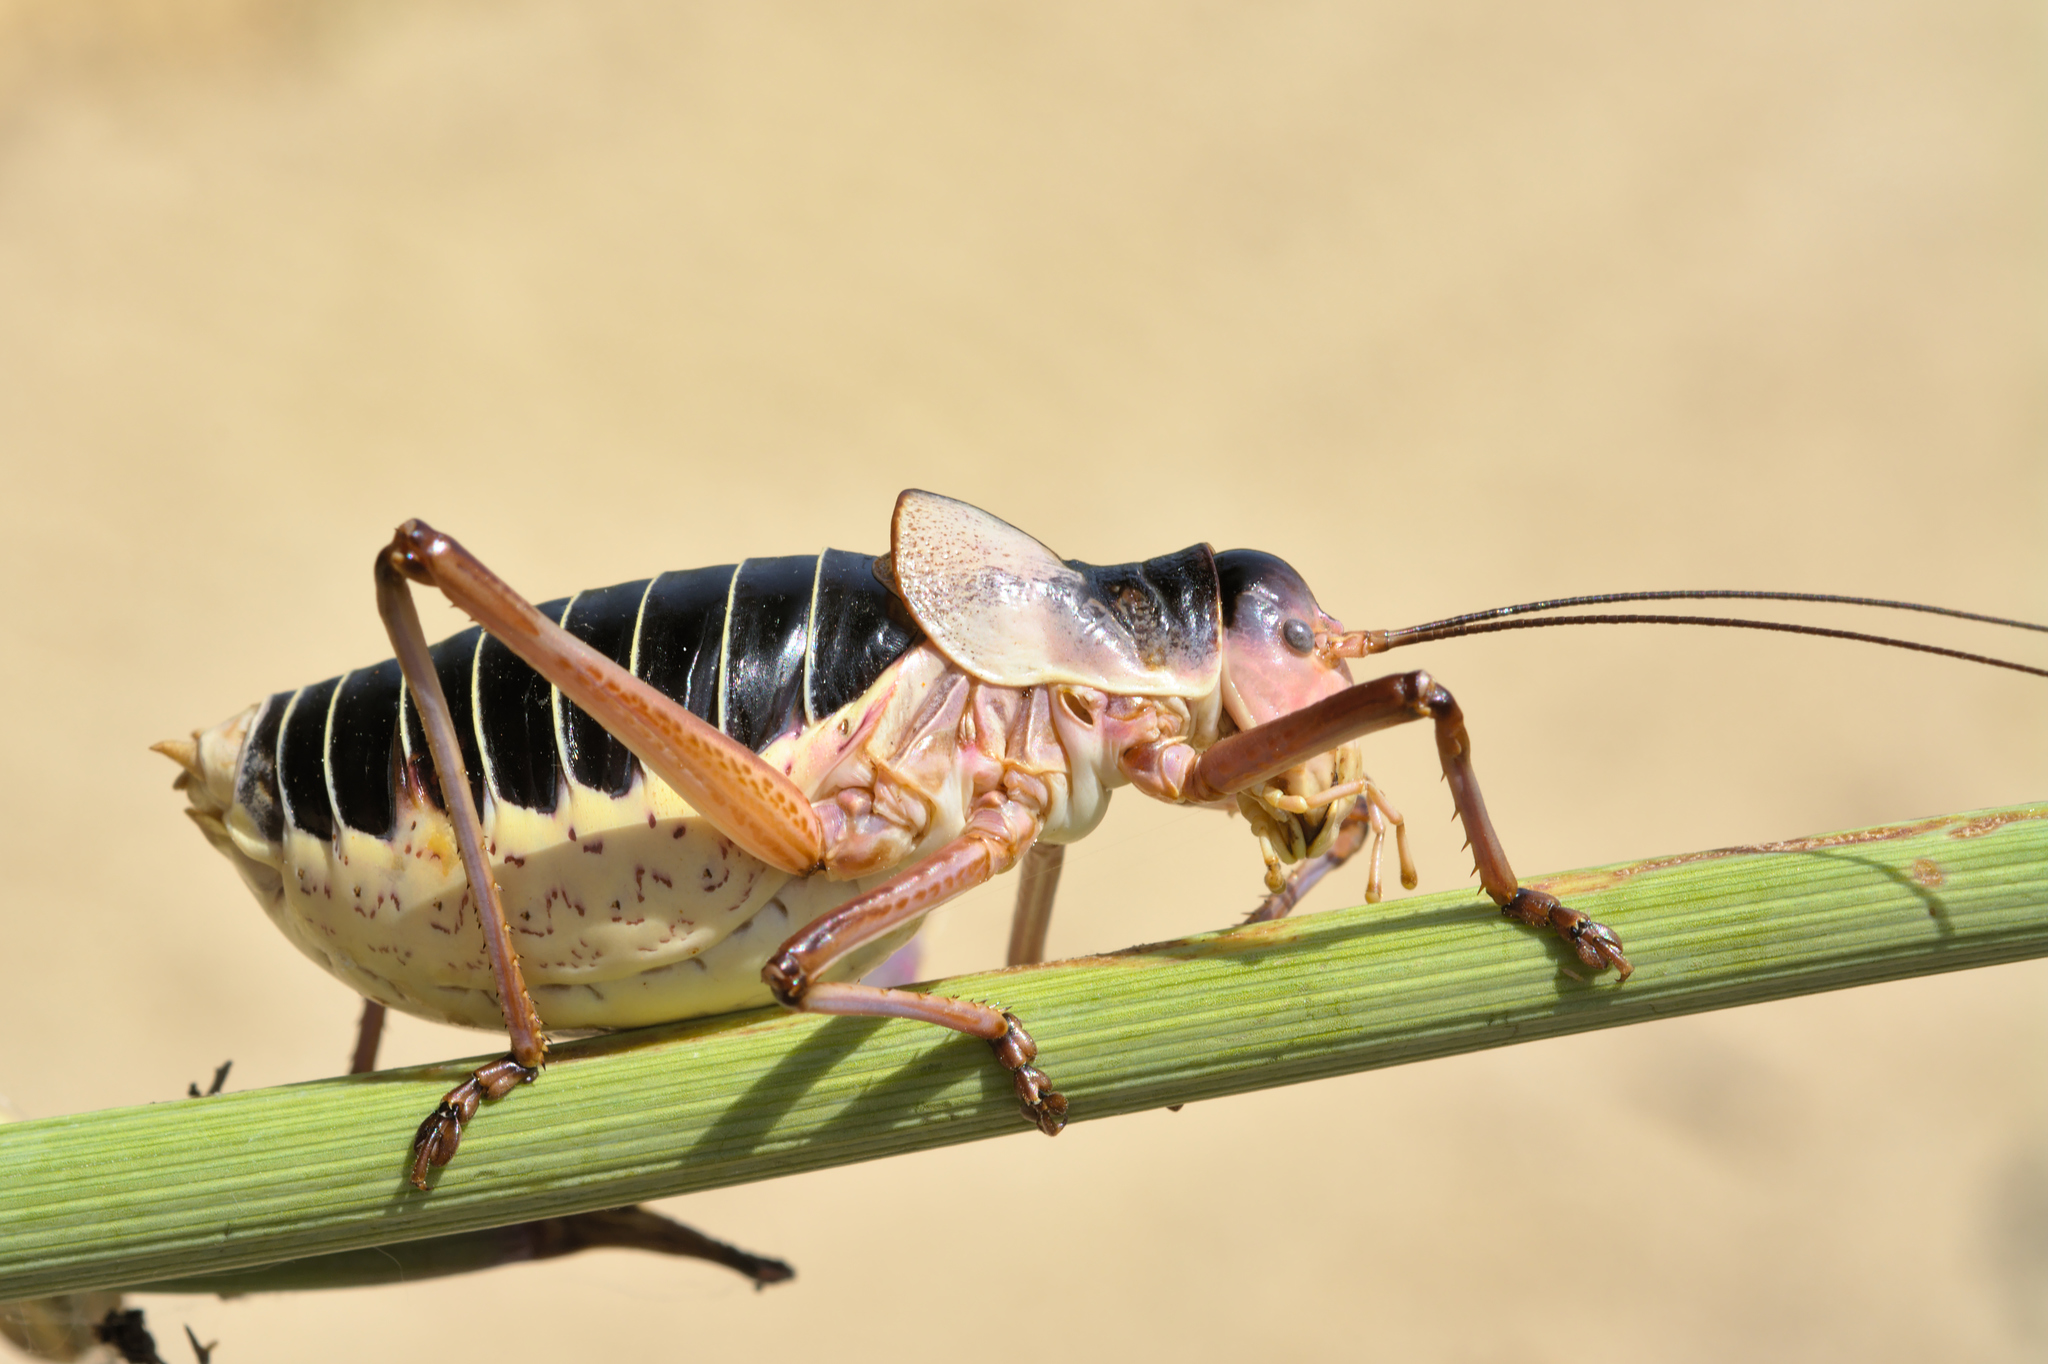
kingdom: Animalia
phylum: Arthropoda
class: Insecta
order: Orthoptera
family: Tettigoniidae
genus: Ephippiger
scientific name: Ephippiger diurnus
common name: Western saddle bush-cricket
